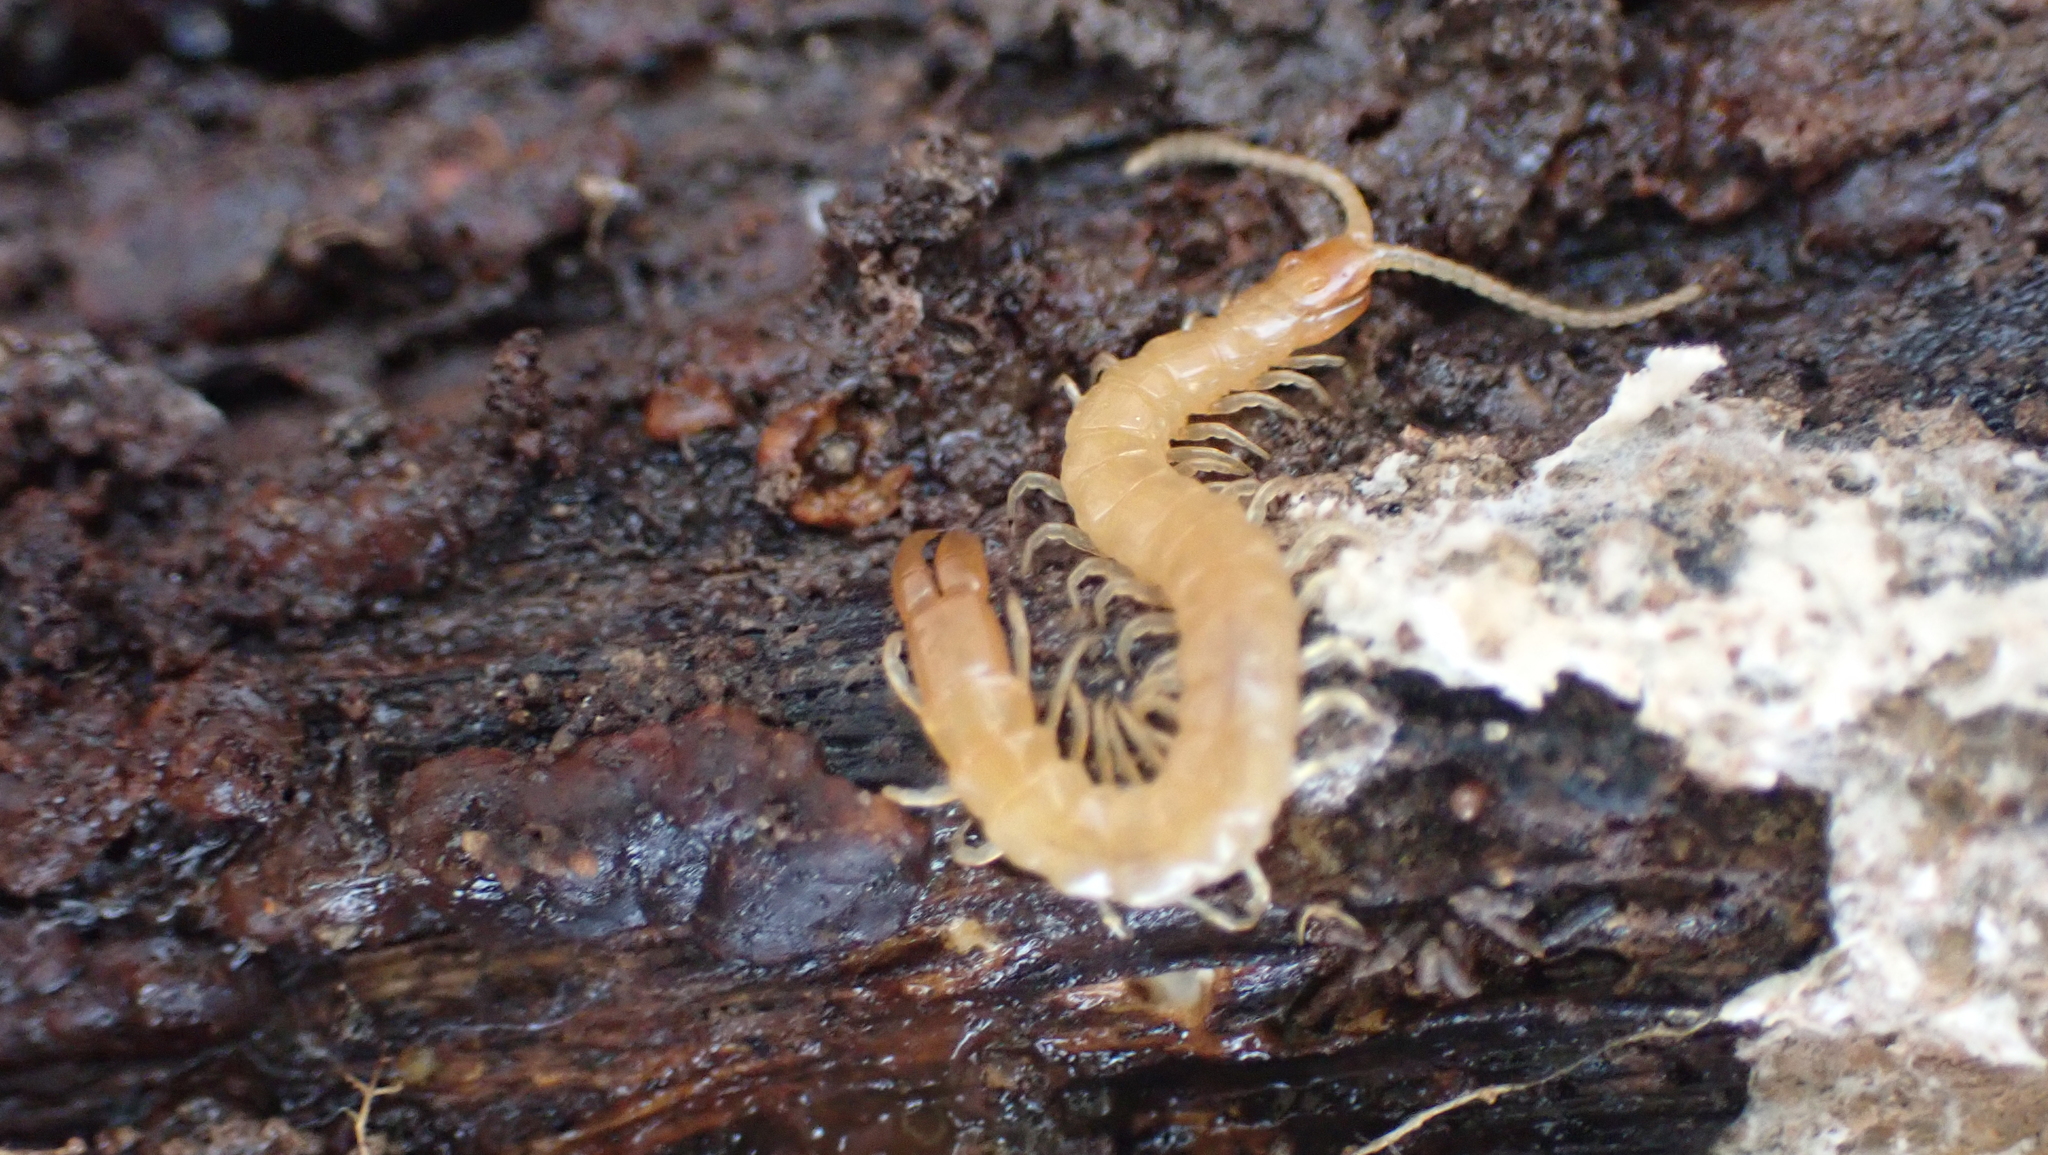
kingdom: Animalia
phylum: Arthropoda
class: Chilopoda
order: Scolopendromorpha
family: Cryptopidae
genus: Theatops
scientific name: Theatops posticus
